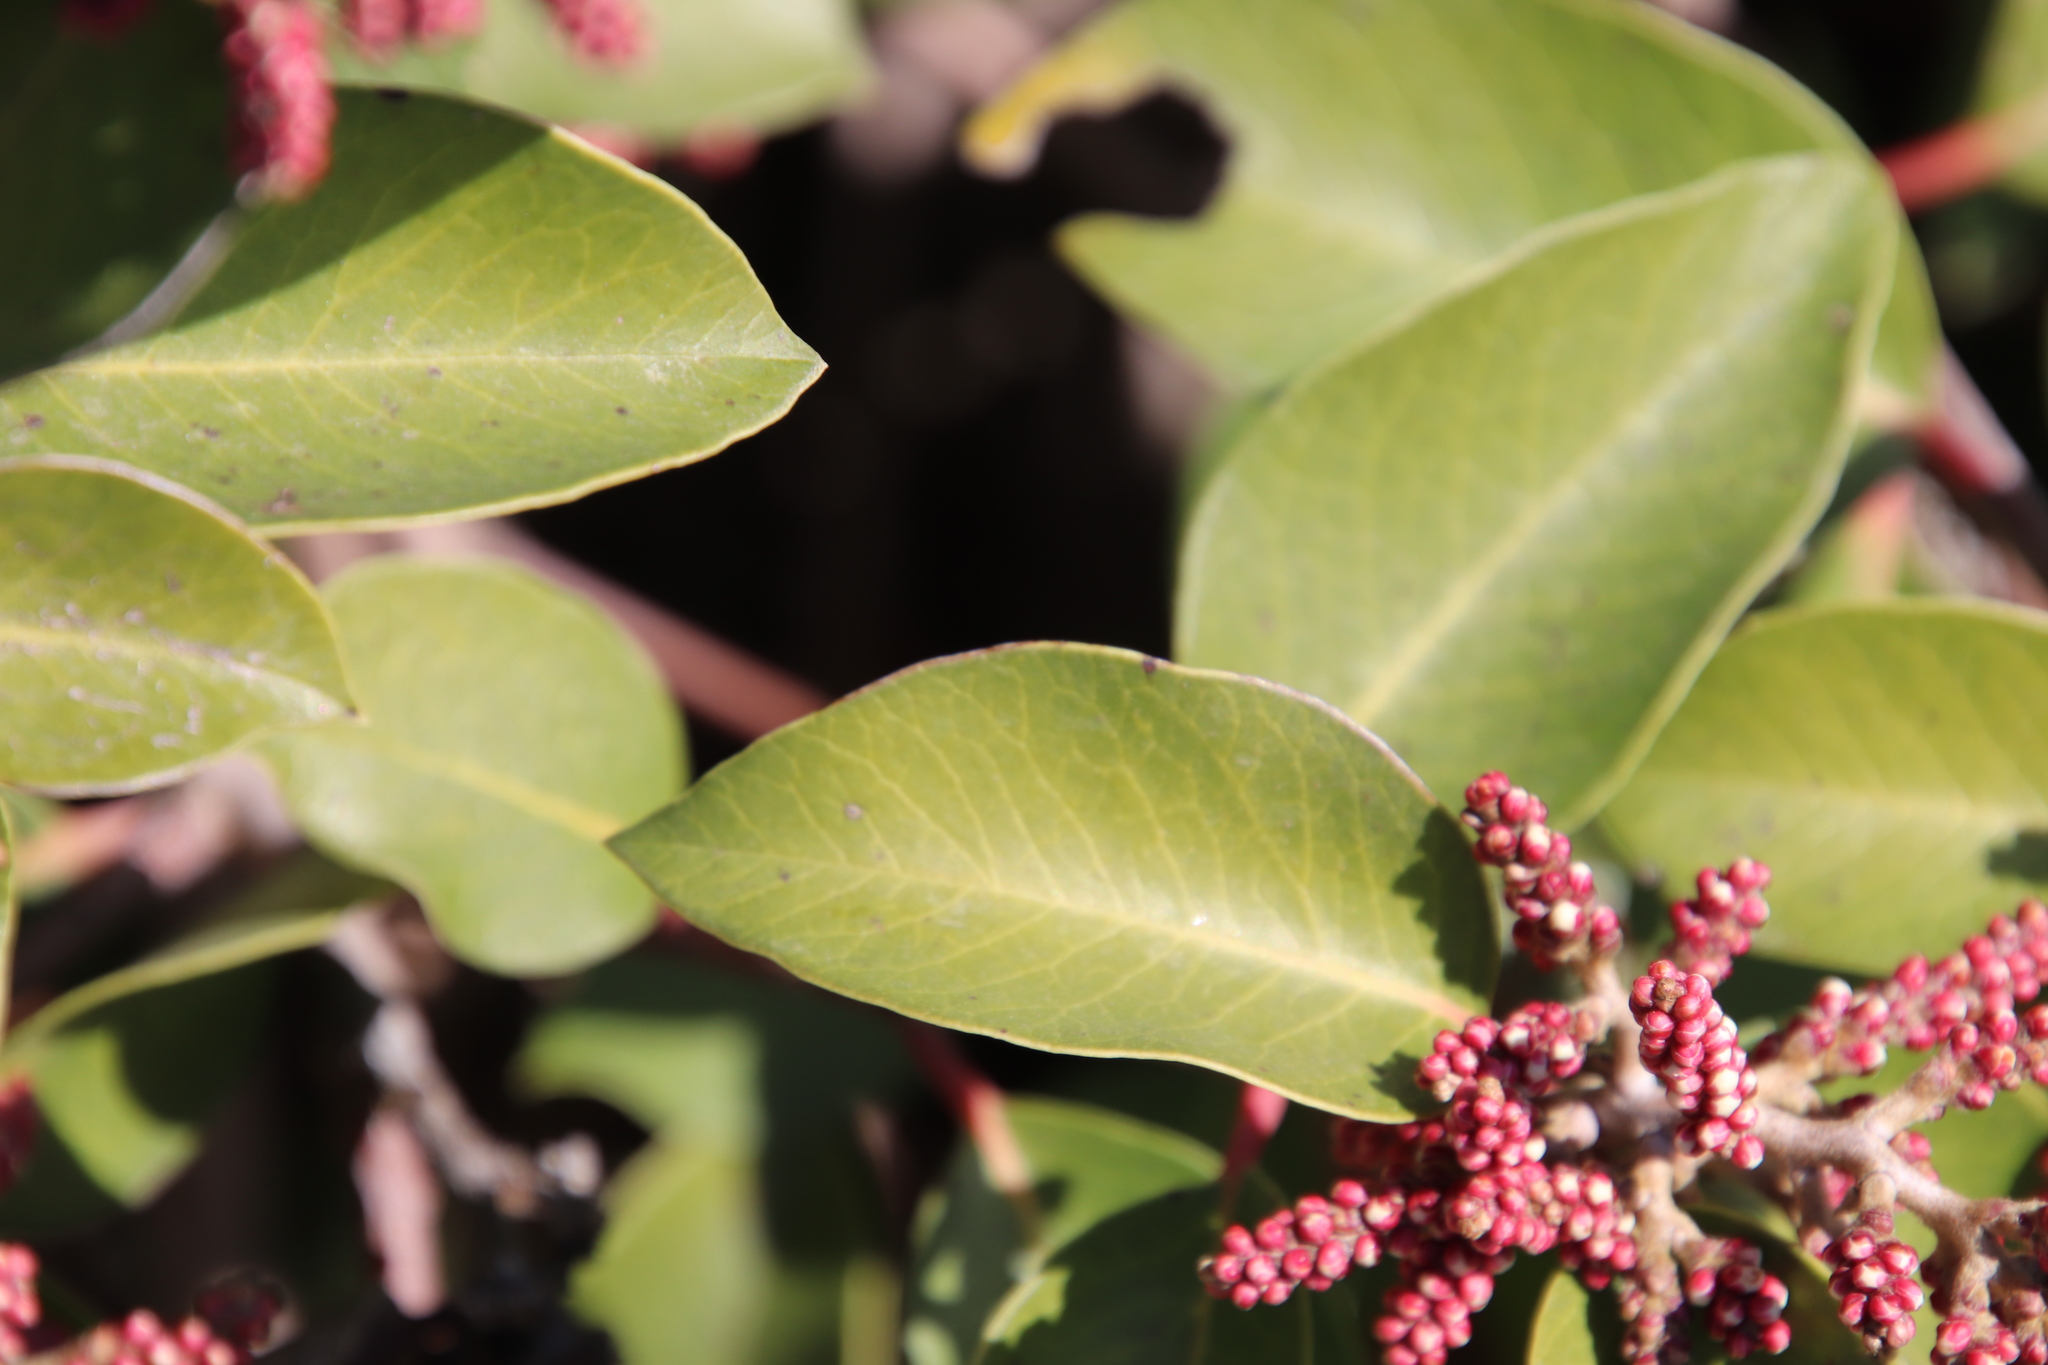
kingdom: Plantae
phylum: Tracheophyta
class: Magnoliopsida
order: Sapindales
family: Anacardiaceae
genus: Rhus
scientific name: Rhus ovata
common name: Sugar sumac
